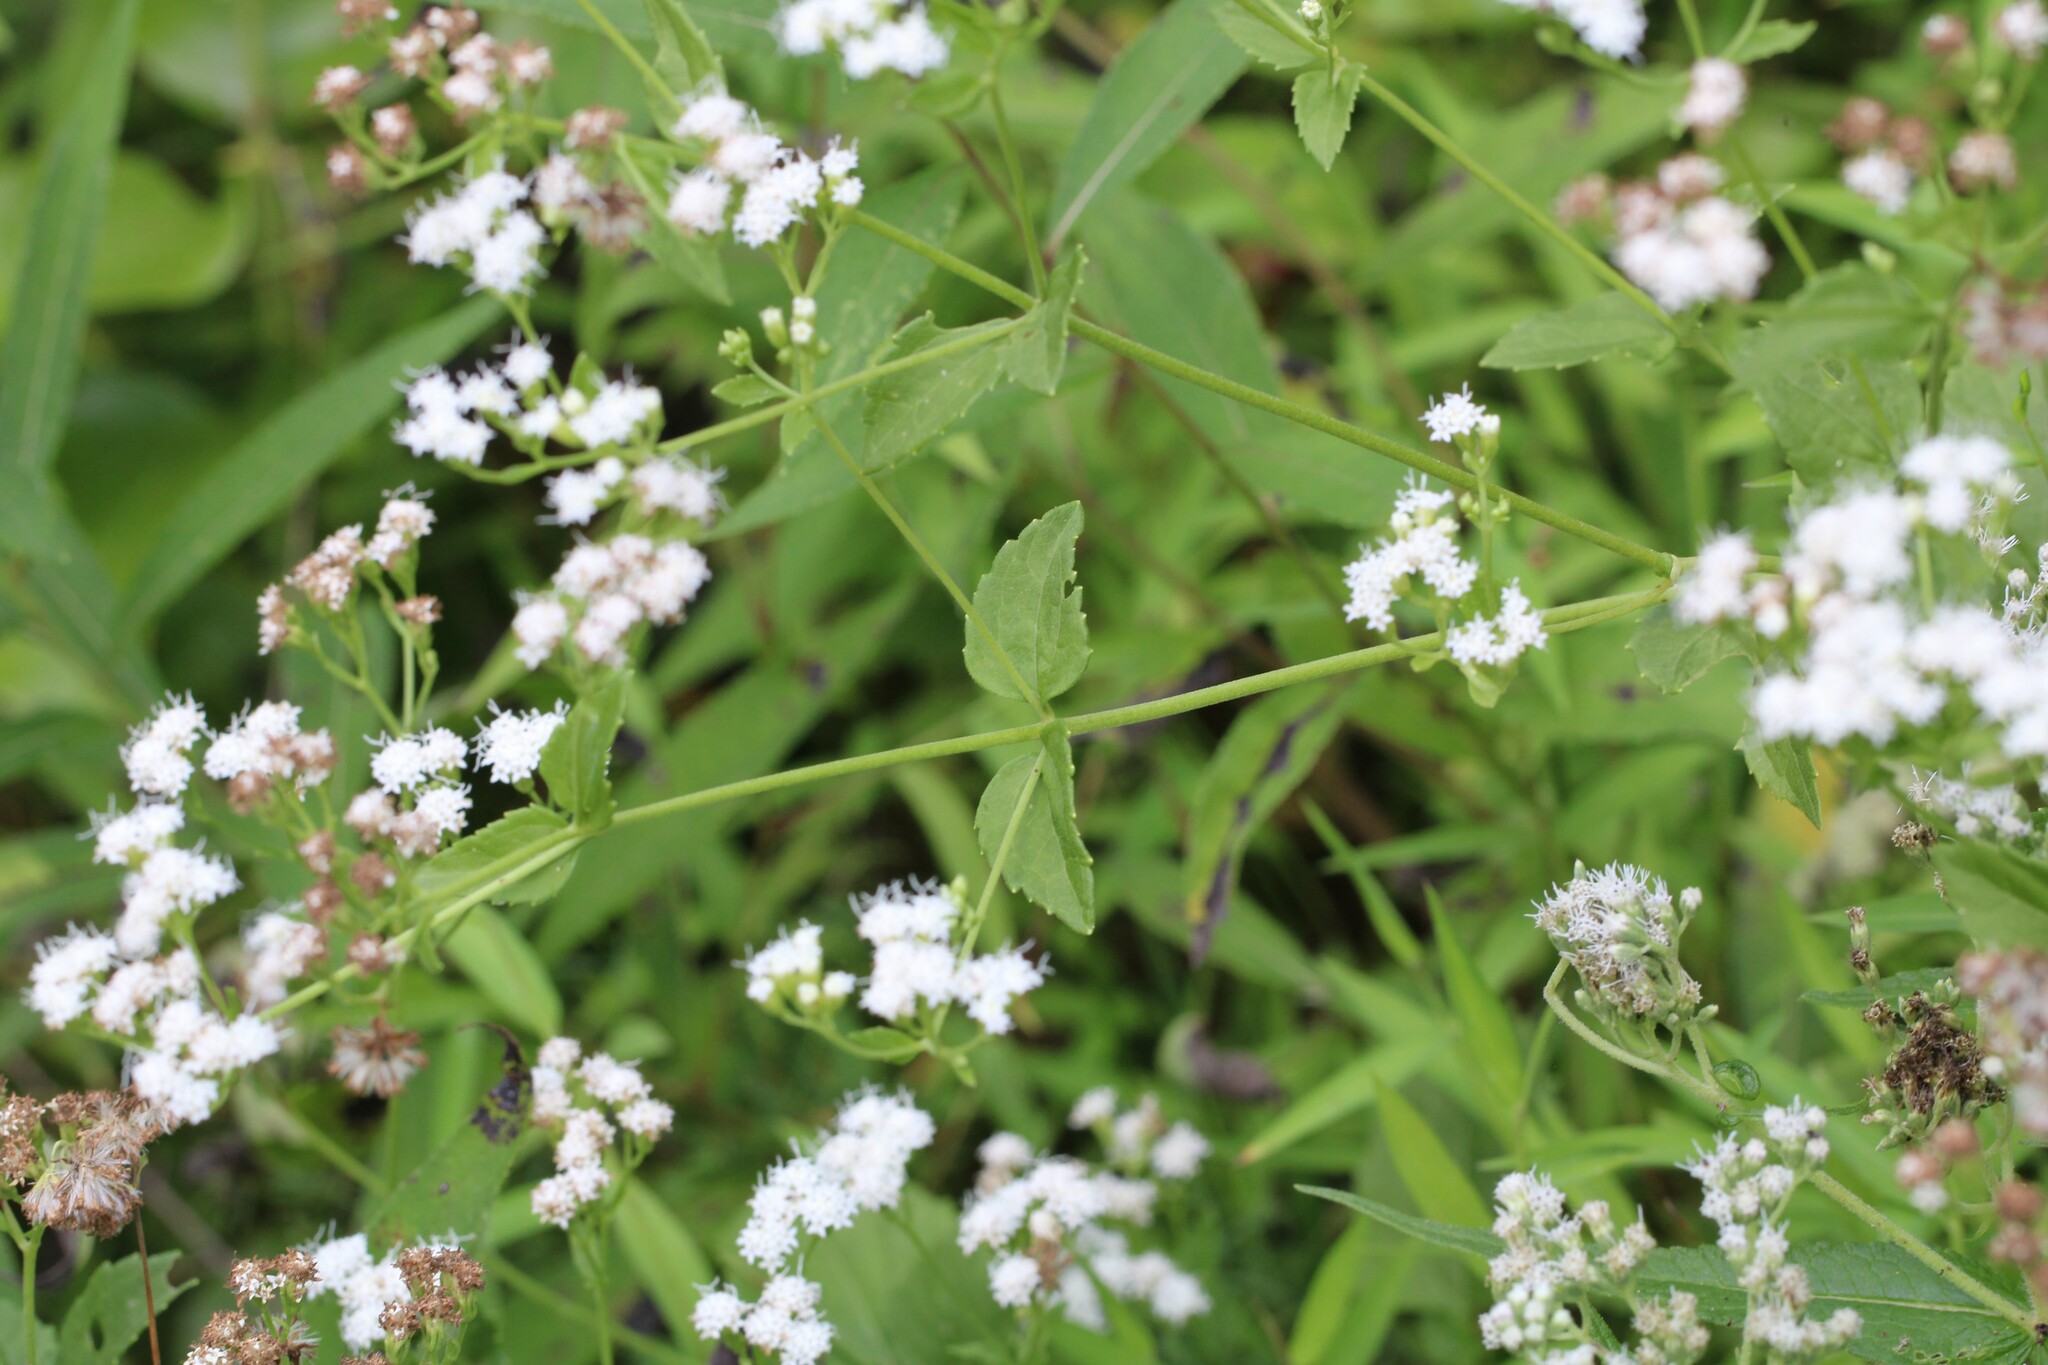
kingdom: Plantae
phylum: Tracheophyta
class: Magnoliopsida
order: Asterales
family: Asteraceae
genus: Ageratina
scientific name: Ageratina aromatica
